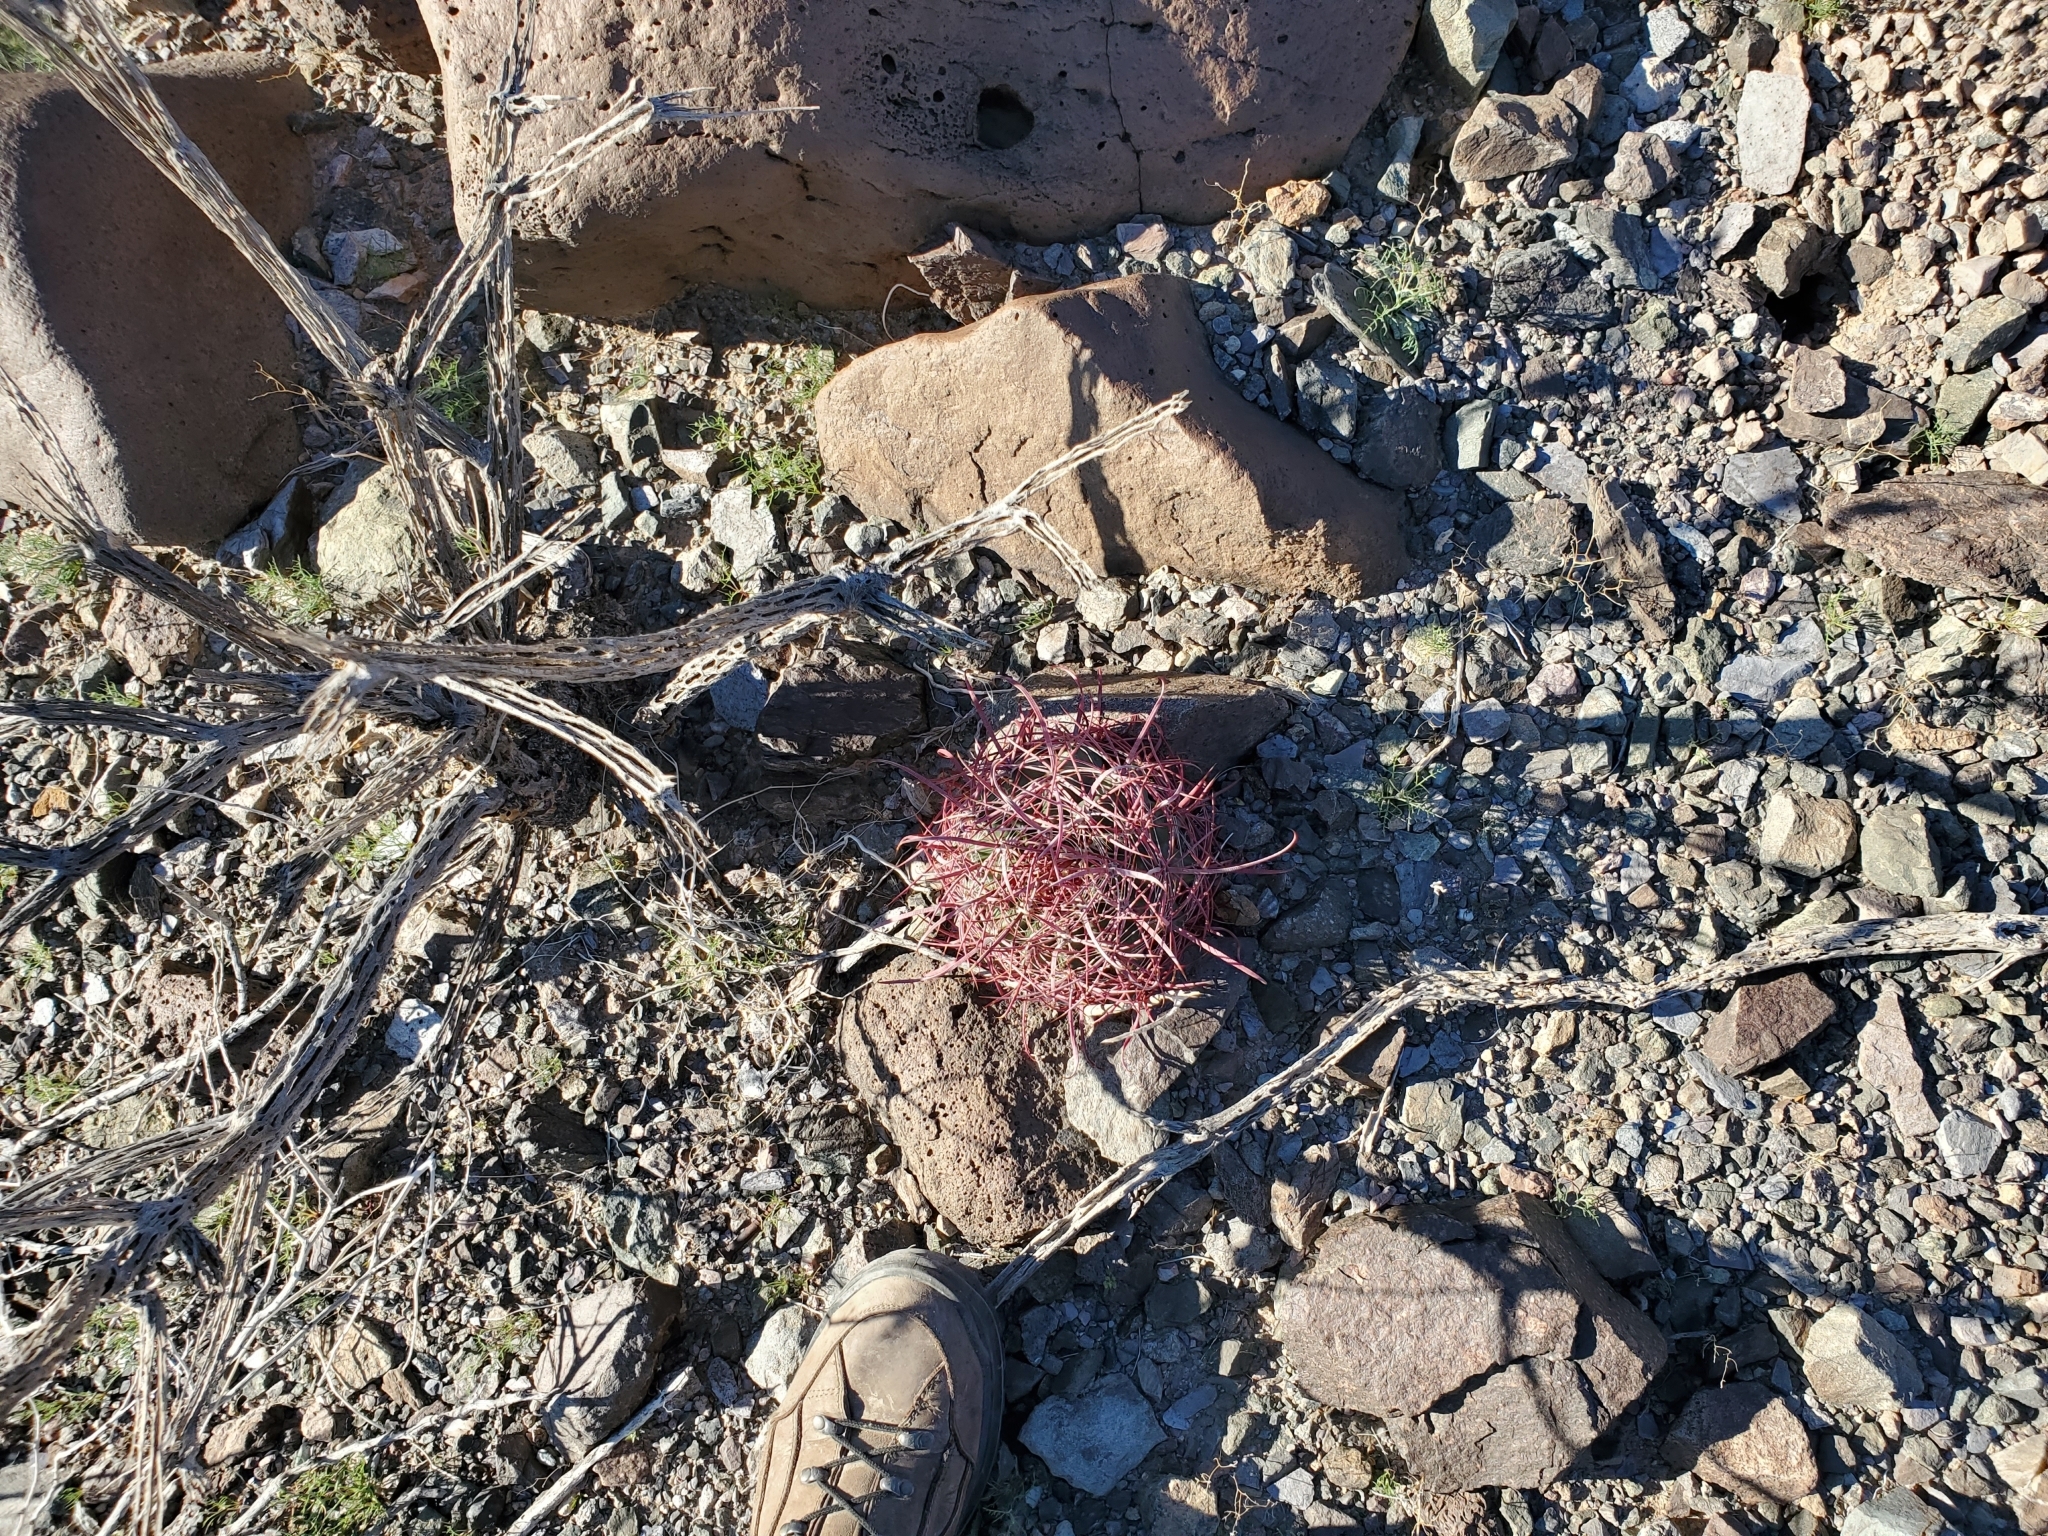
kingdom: Plantae
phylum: Tracheophyta
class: Magnoliopsida
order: Caryophyllales
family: Cactaceae
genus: Ferocactus
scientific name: Ferocactus cylindraceus
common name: California barrel cactus
